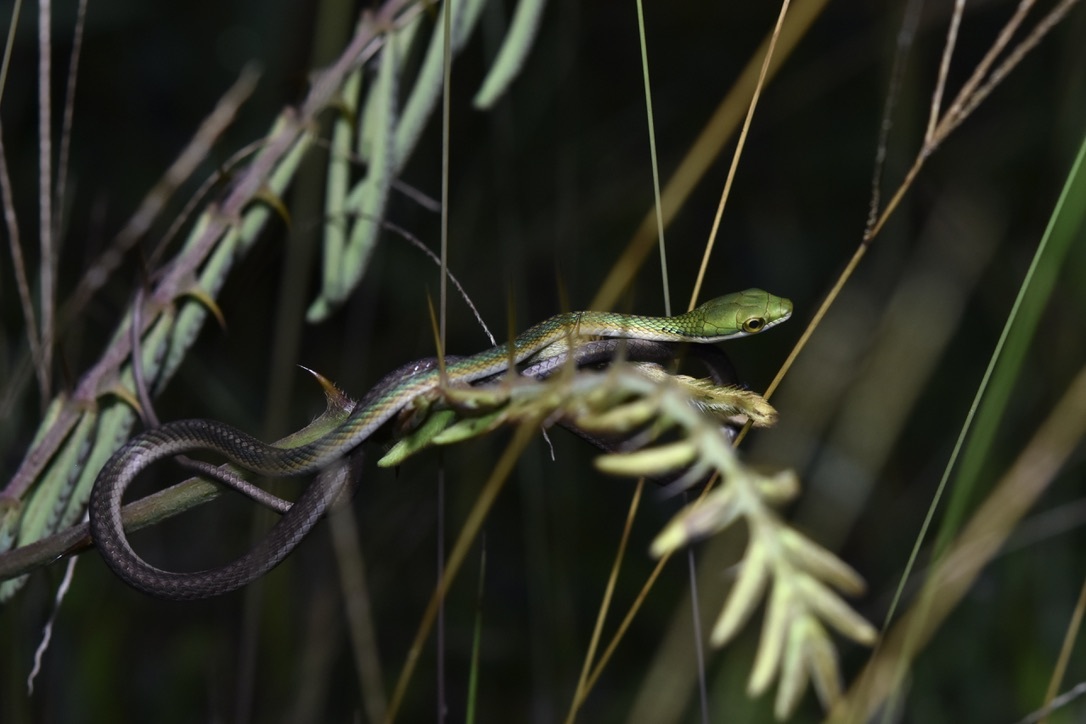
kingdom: Animalia
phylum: Chordata
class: Squamata
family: Colubridae
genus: Leptophis
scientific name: Leptophis ahaetulla
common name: Parrot snake
